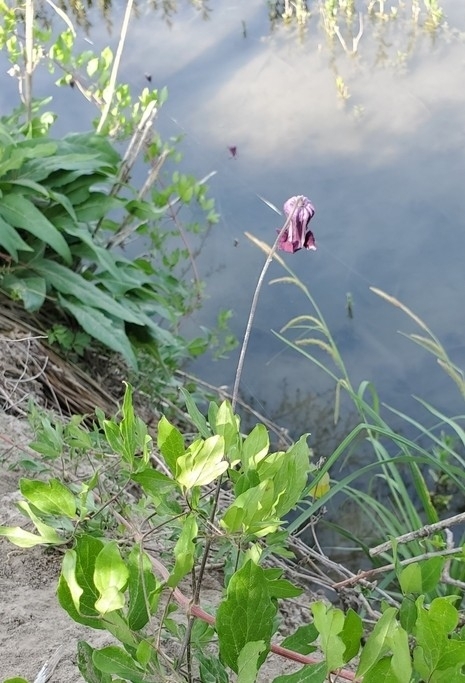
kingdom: Plantae
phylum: Tracheophyta
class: Magnoliopsida
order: Ranunculales
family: Ranunculaceae
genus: Clematis
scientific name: Clematis pitcheri
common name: Bellflower clematis
